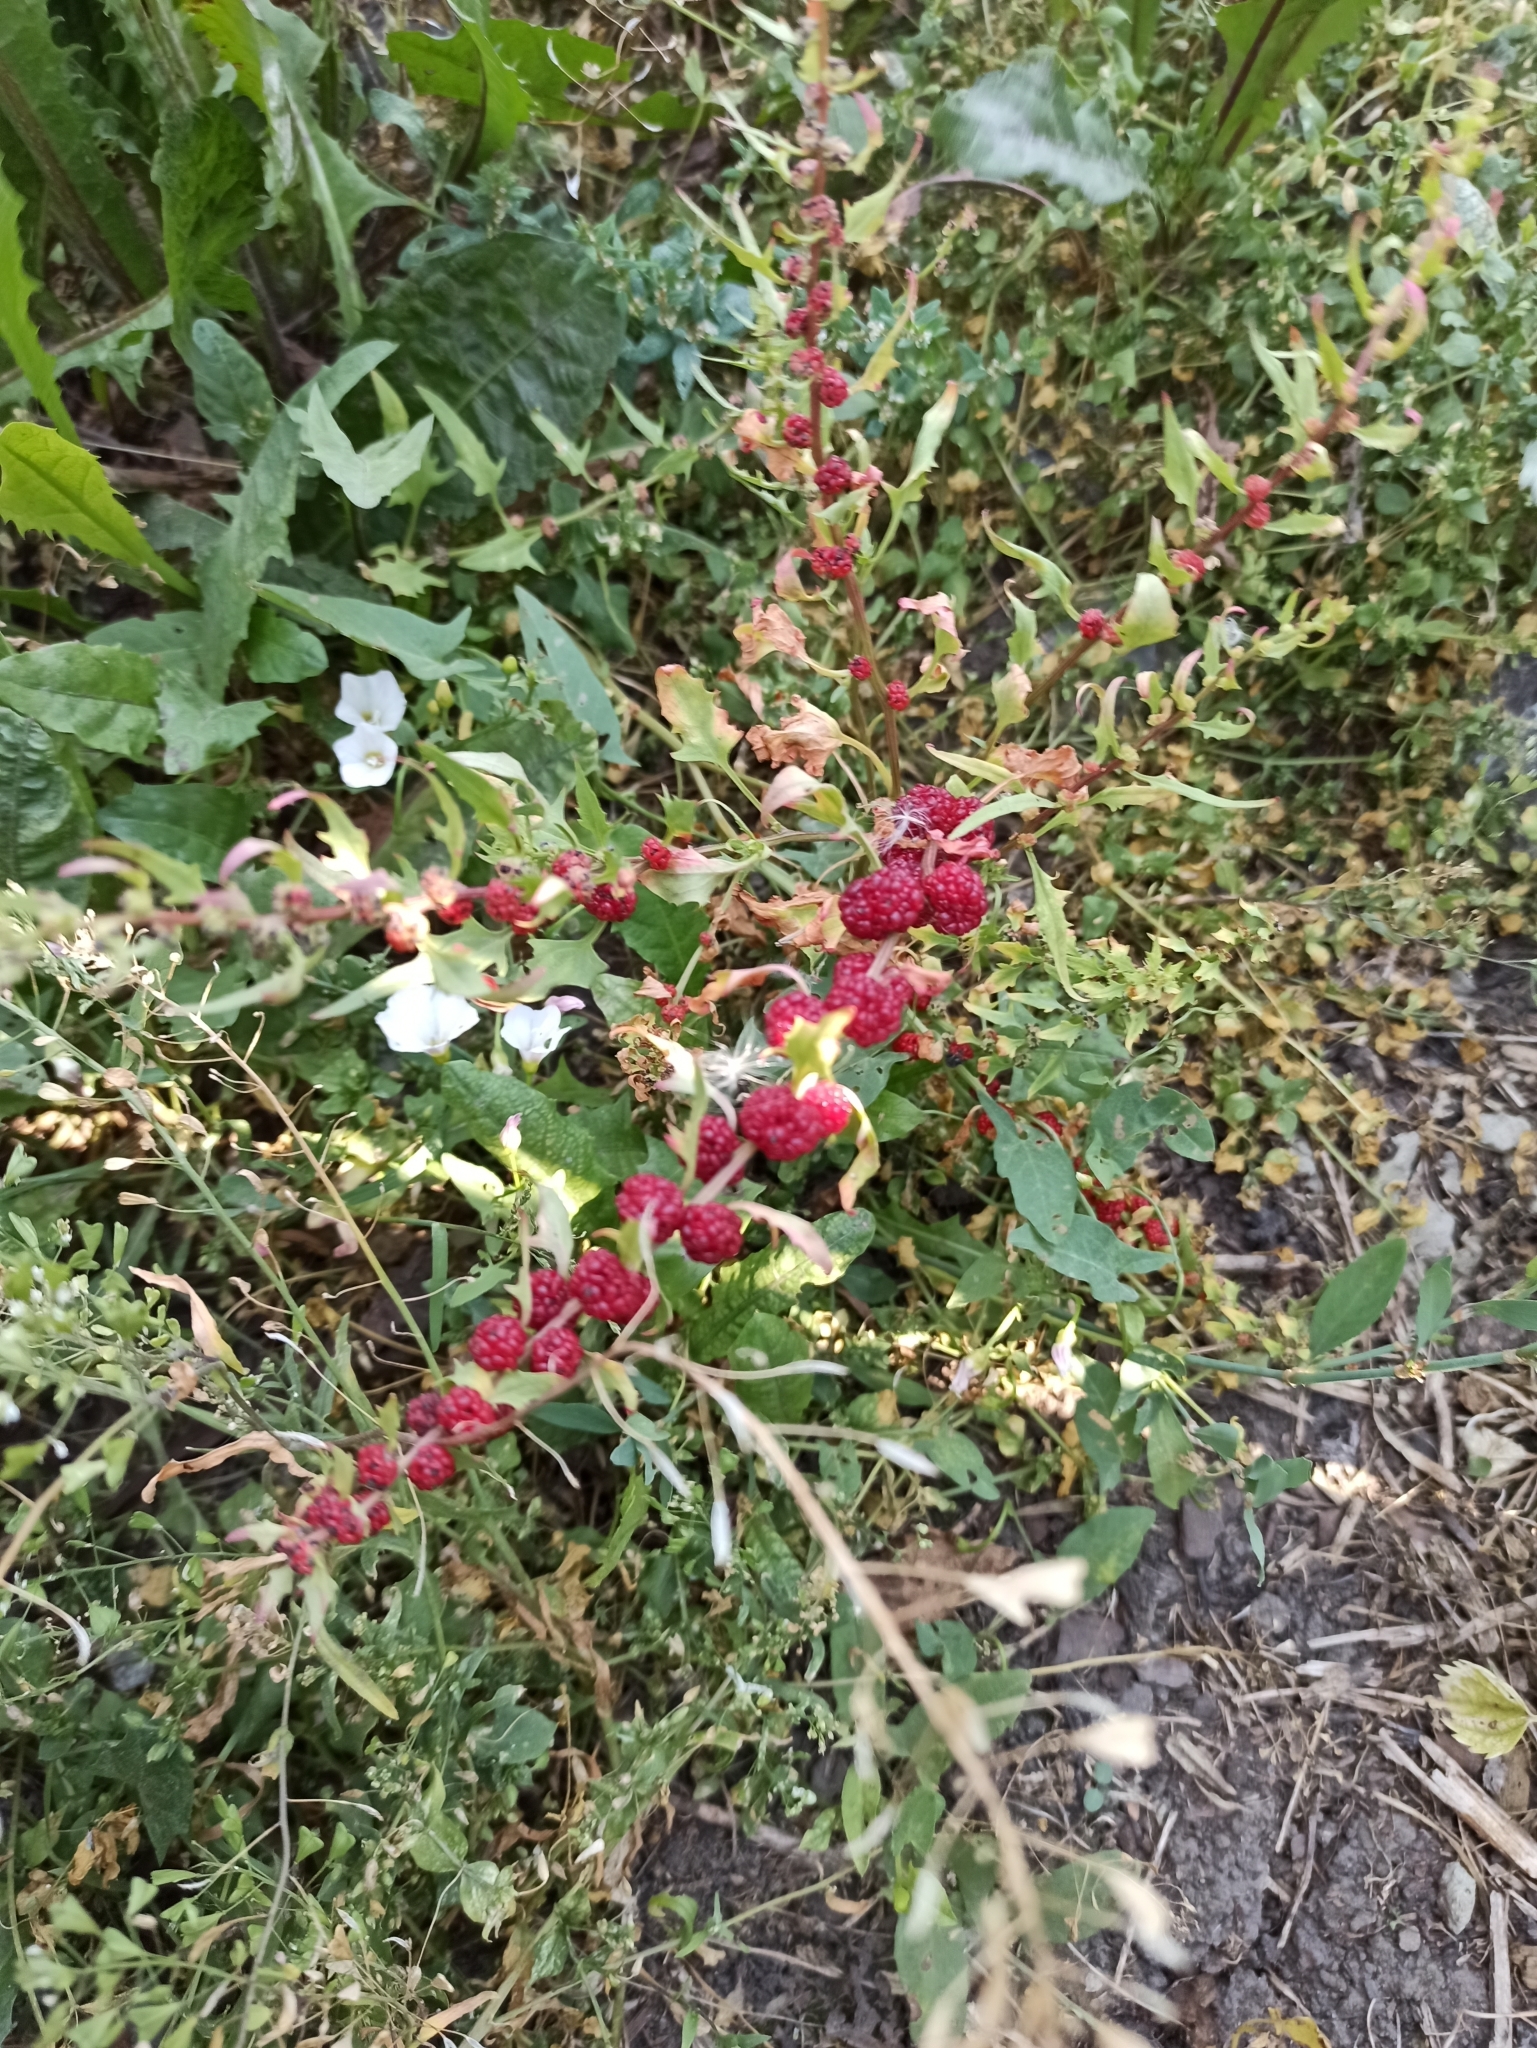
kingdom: Plantae
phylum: Tracheophyta
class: Magnoliopsida
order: Caryophyllales
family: Amaranthaceae
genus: Blitum
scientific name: Blitum virgatum
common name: Strawberry goosefoot
